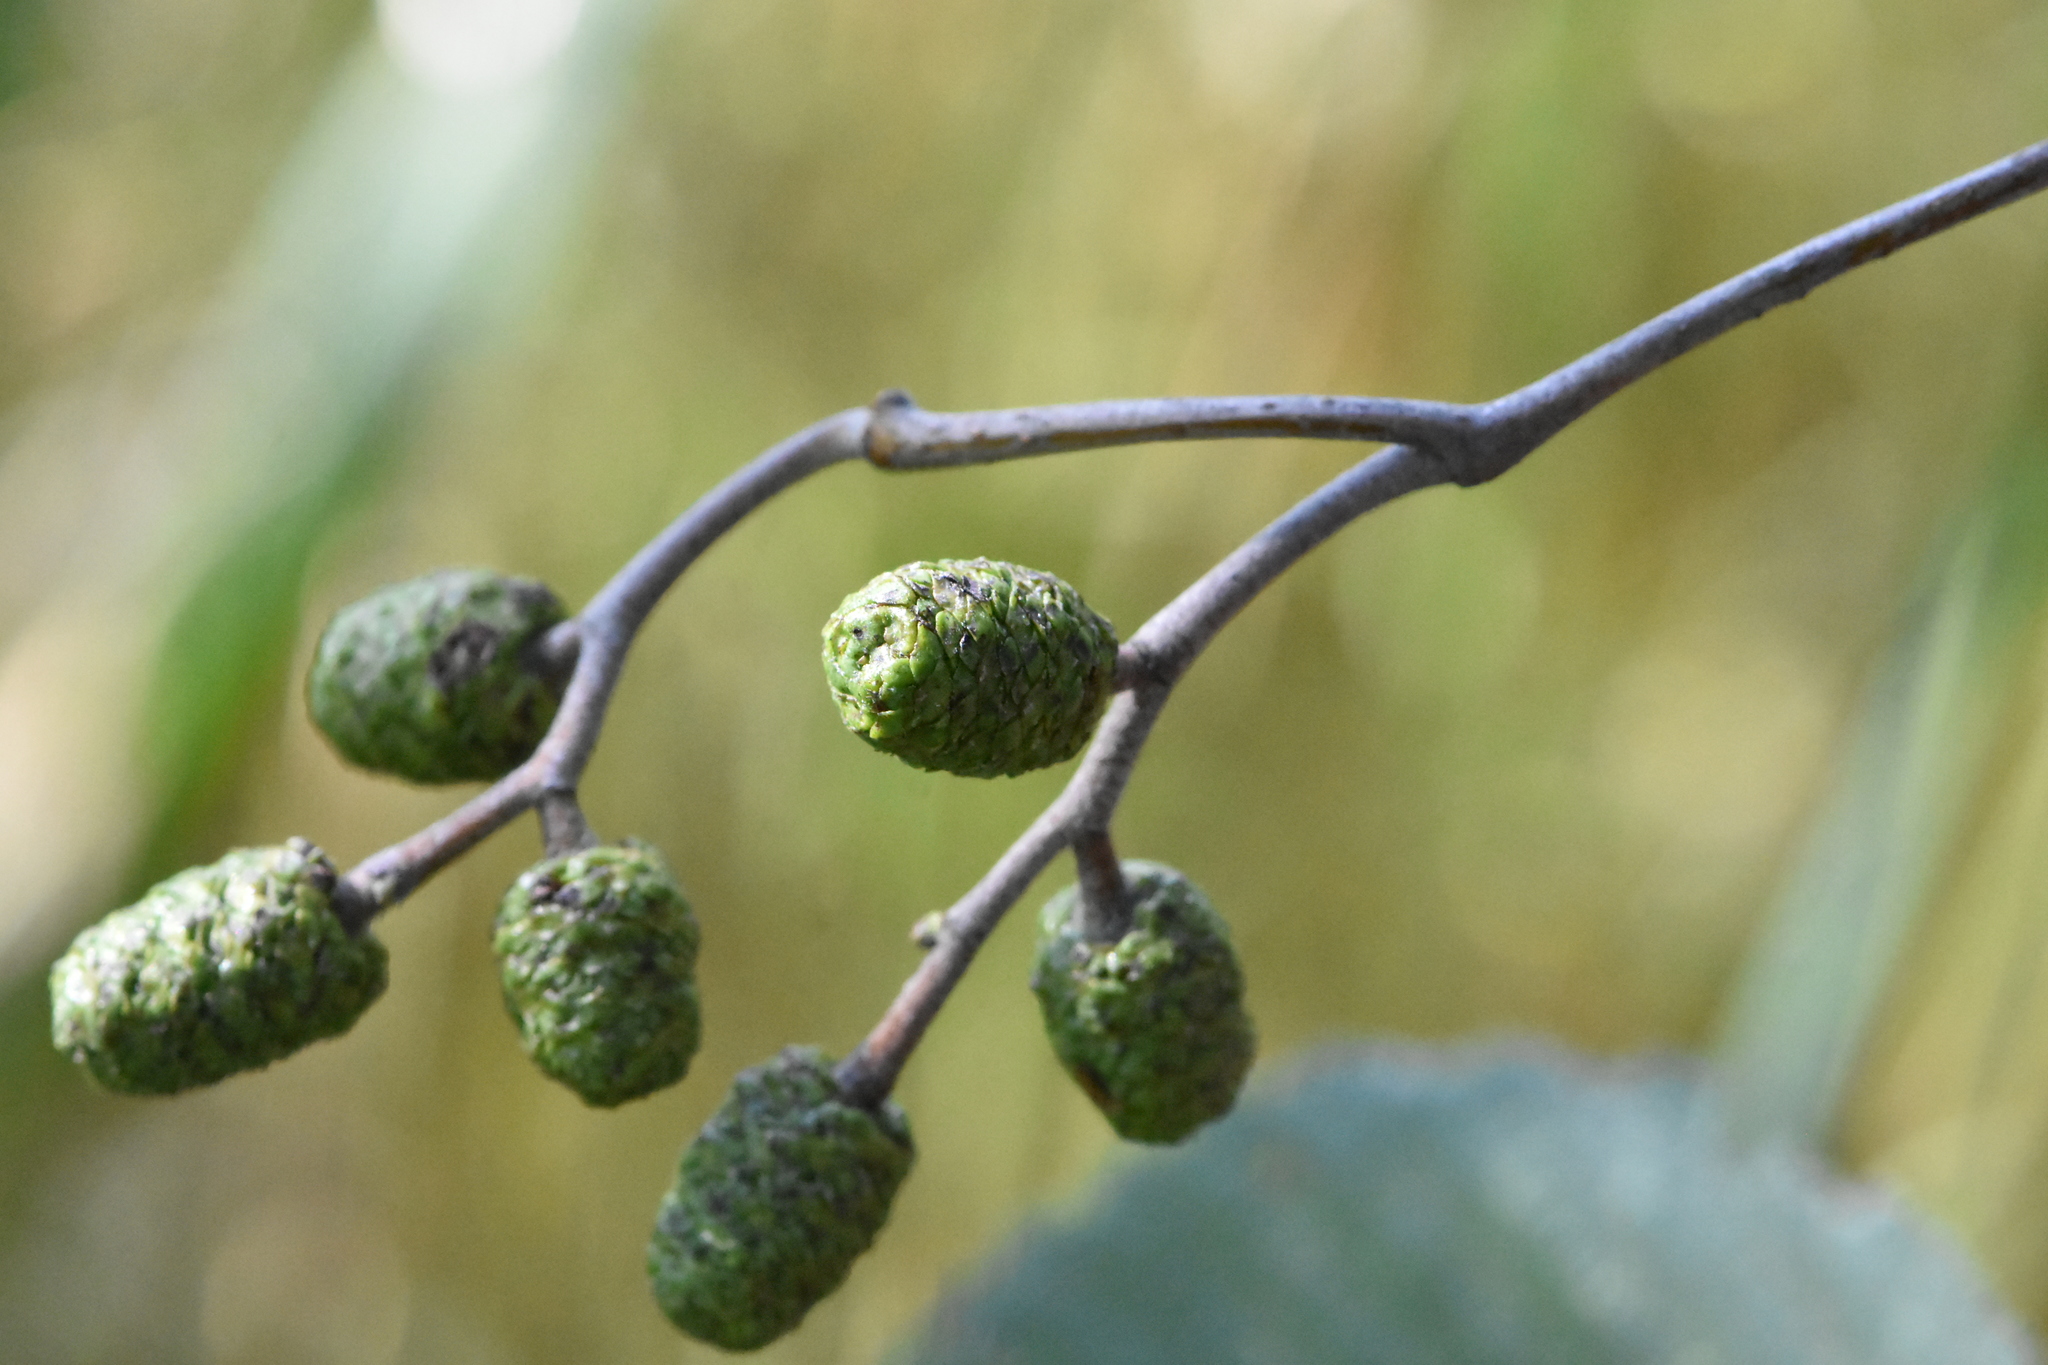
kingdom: Plantae
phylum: Tracheophyta
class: Magnoliopsida
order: Fagales
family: Betulaceae
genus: Alnus
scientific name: Alnus incana
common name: Grey alder
